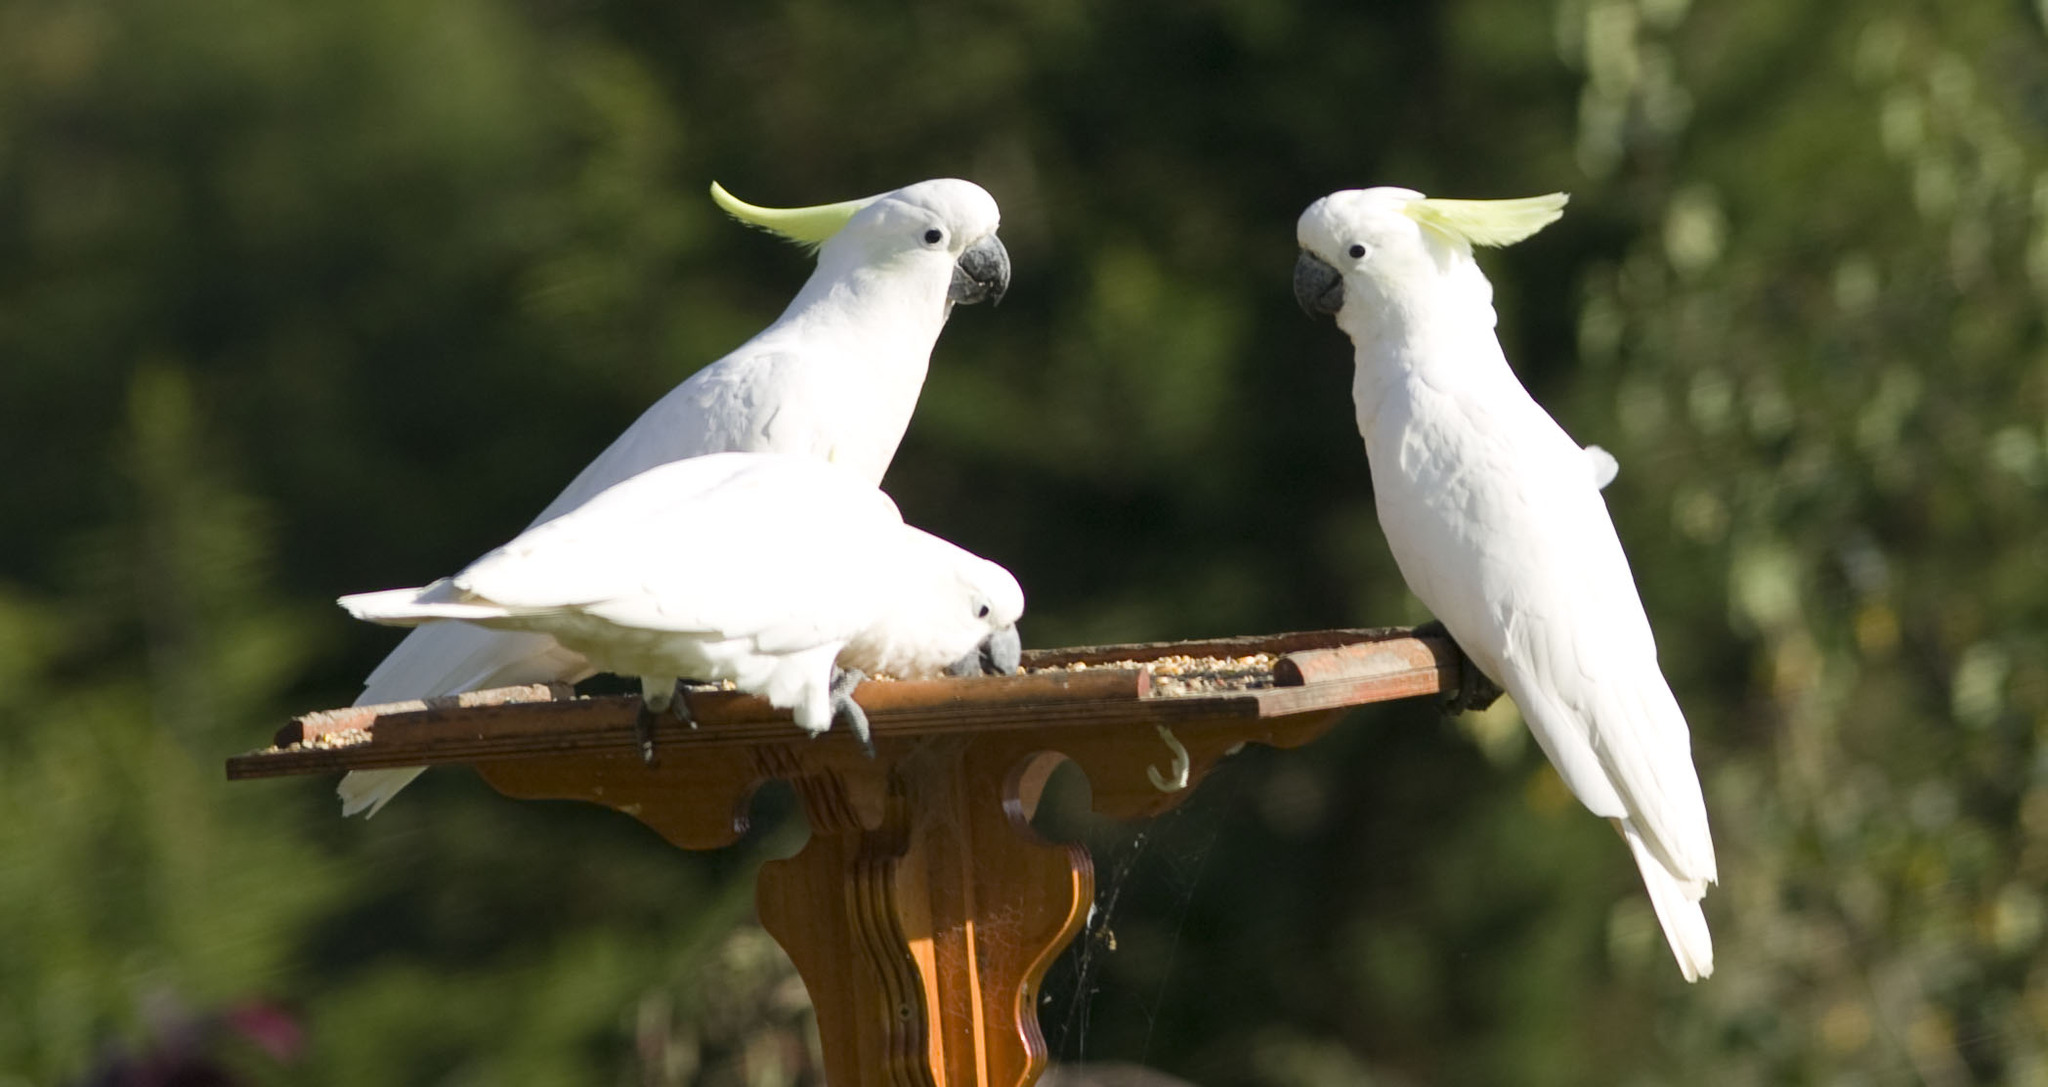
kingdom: Animalia
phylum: Chordata
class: Aves
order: Psittaciformes
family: Psittacidae
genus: Cacatua
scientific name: Cacatua galerita
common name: Sulphur-crested cockatoo
